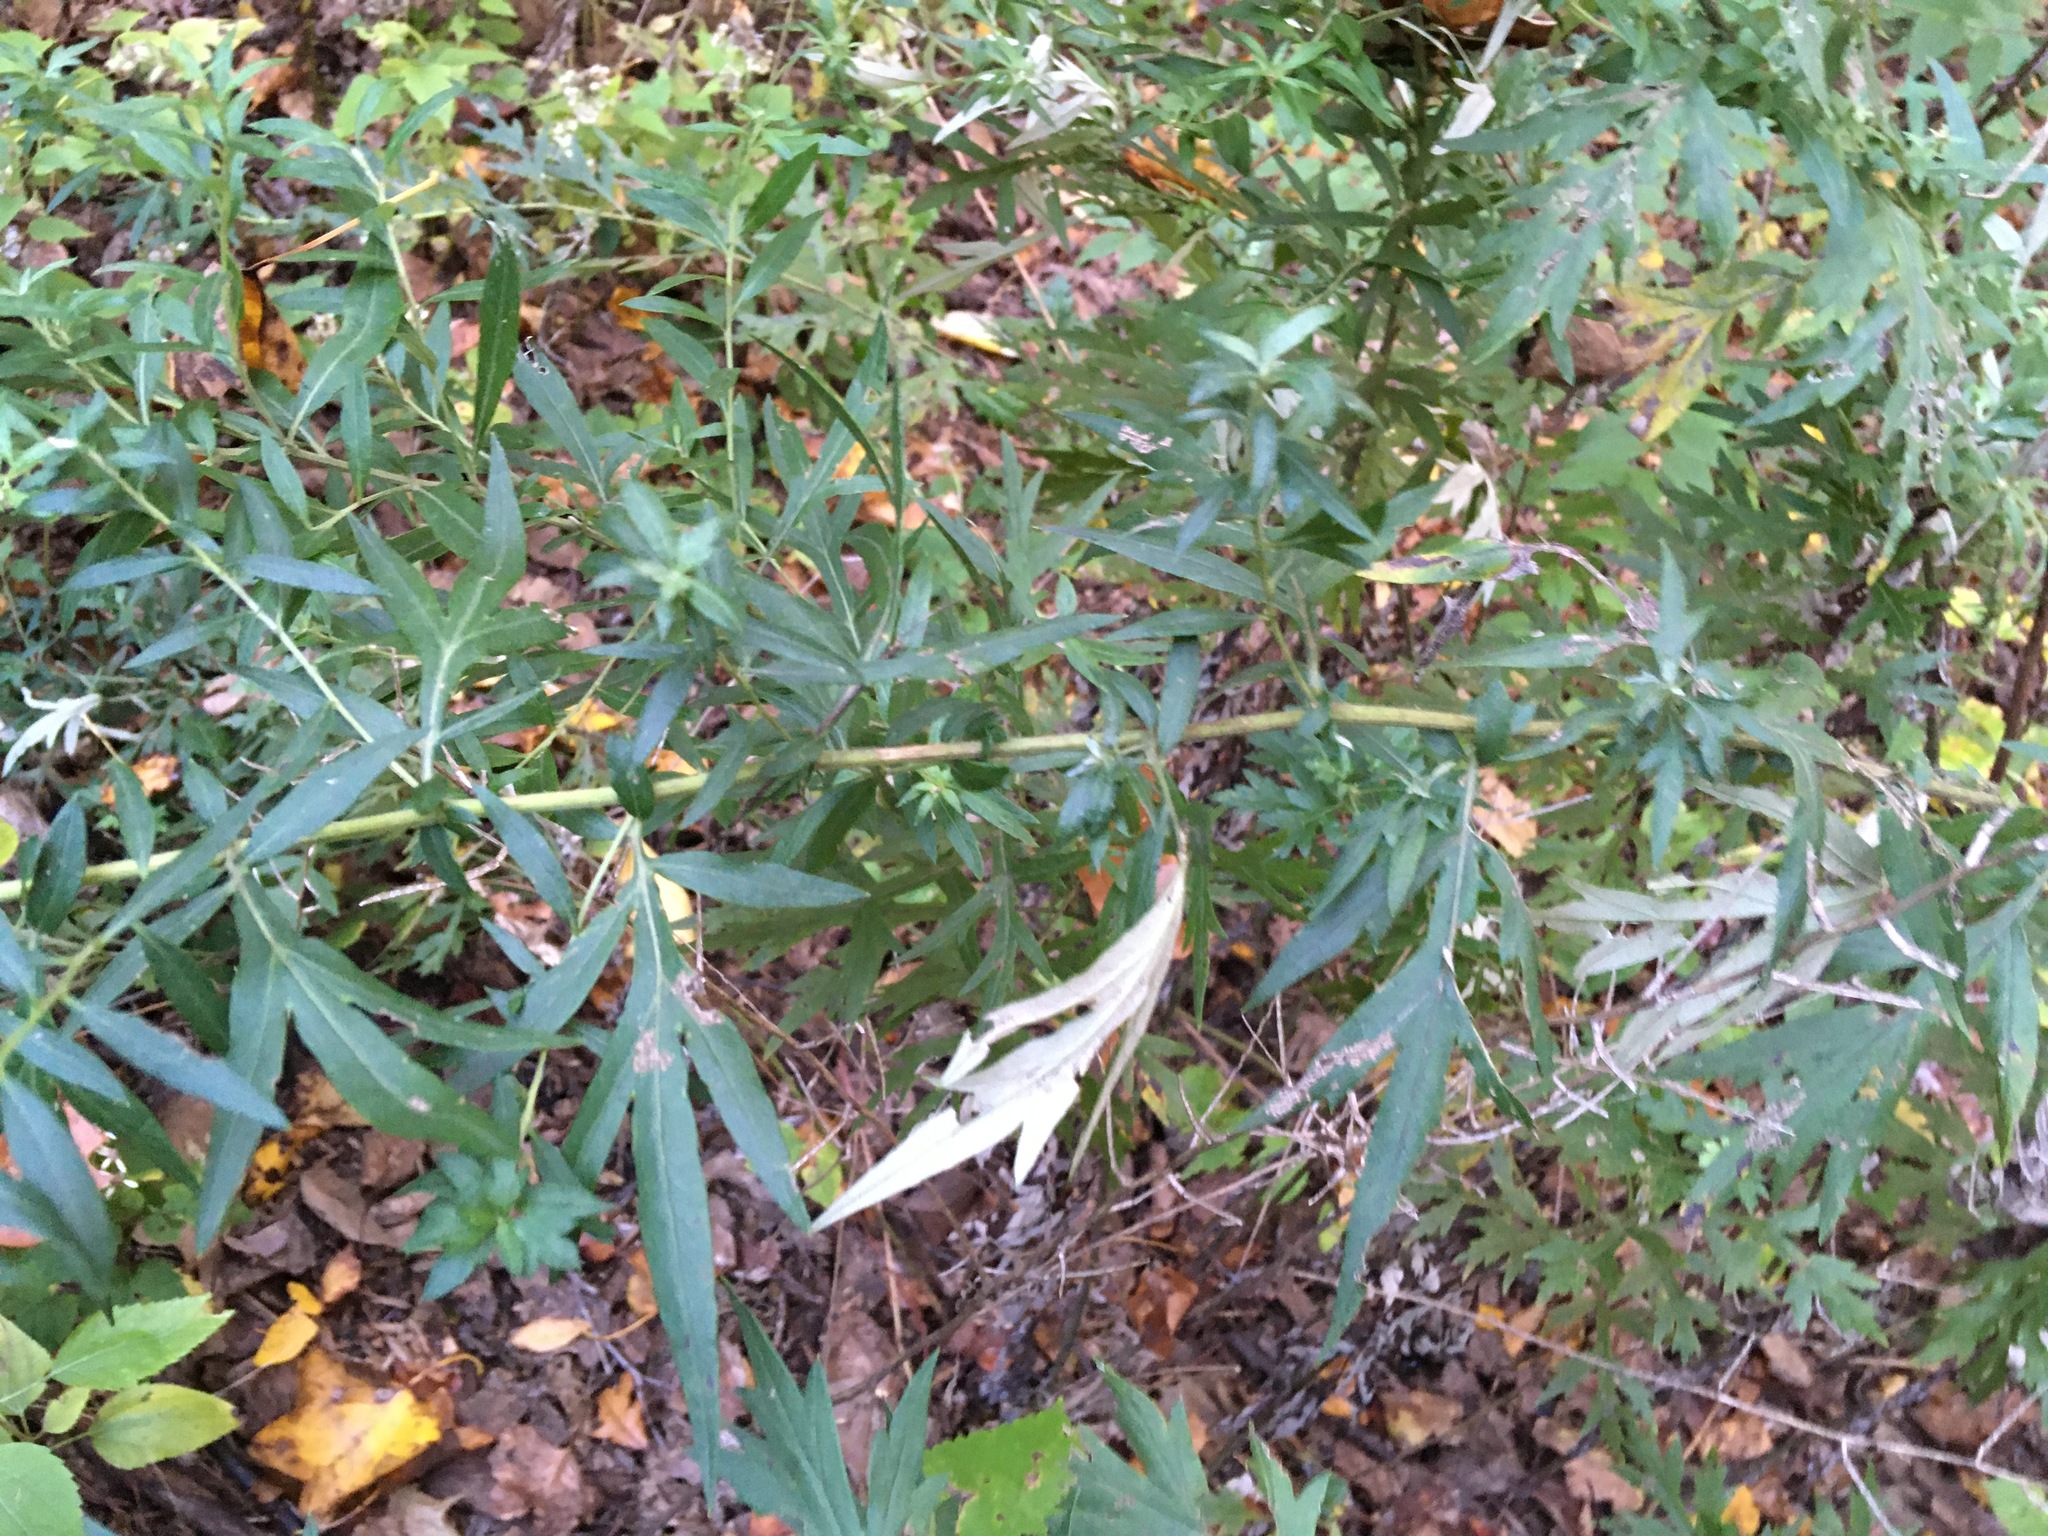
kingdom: Plantae
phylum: Tracheophyta
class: Magnoliopsida
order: Asterales
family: Asteraceae
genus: Artemisia
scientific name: Artemisia vulgaris
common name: Mugwort
